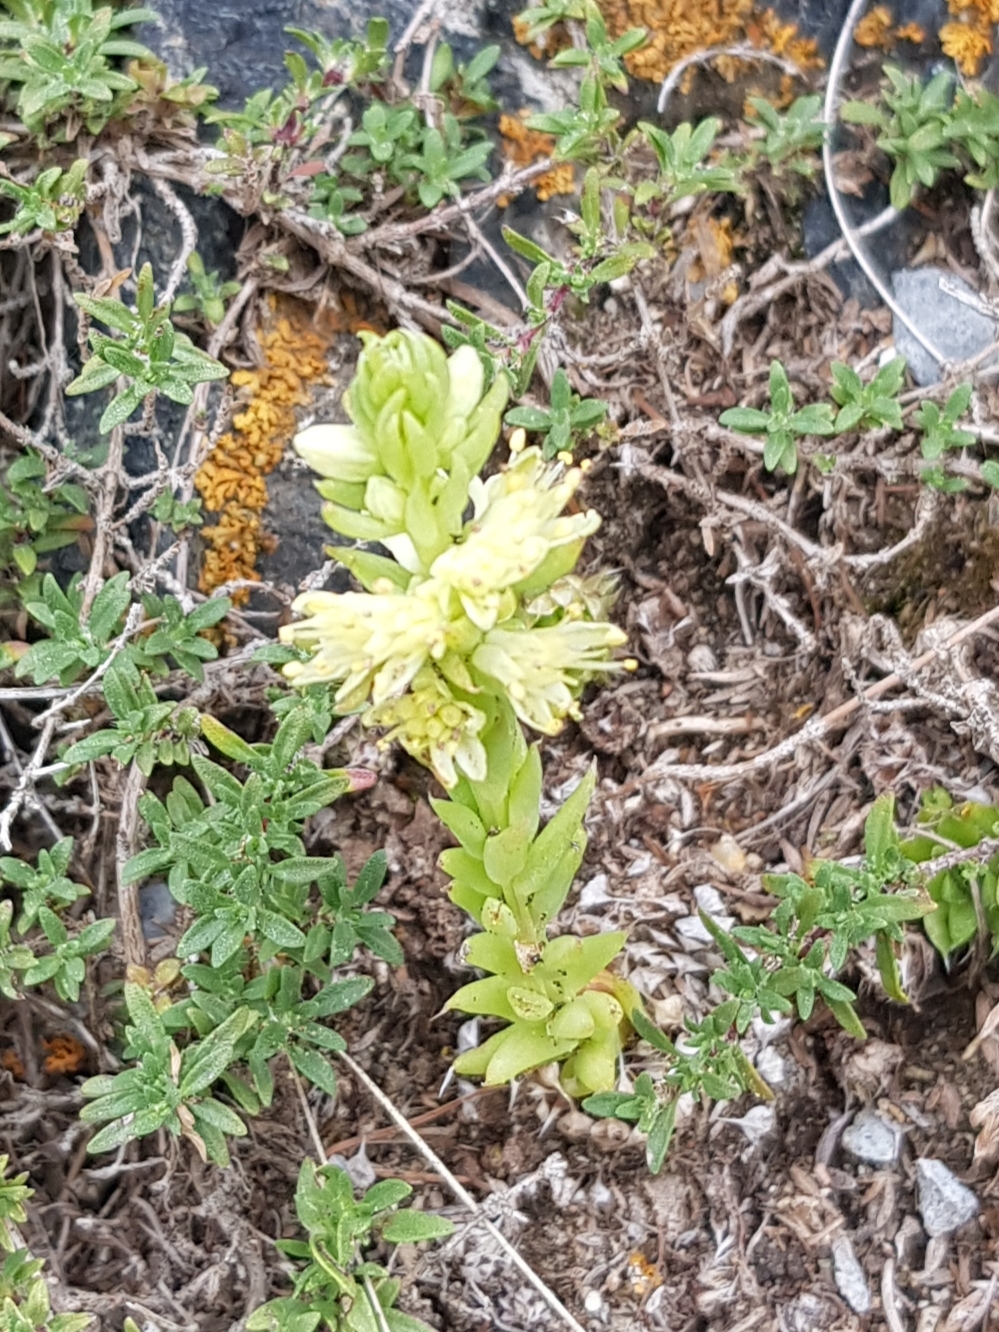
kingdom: Plantae
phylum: Tracheophyta
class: Magnoliopsida
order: Saxifragales
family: Crassulaceae
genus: Orostachys
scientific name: Orostachys spinosa
